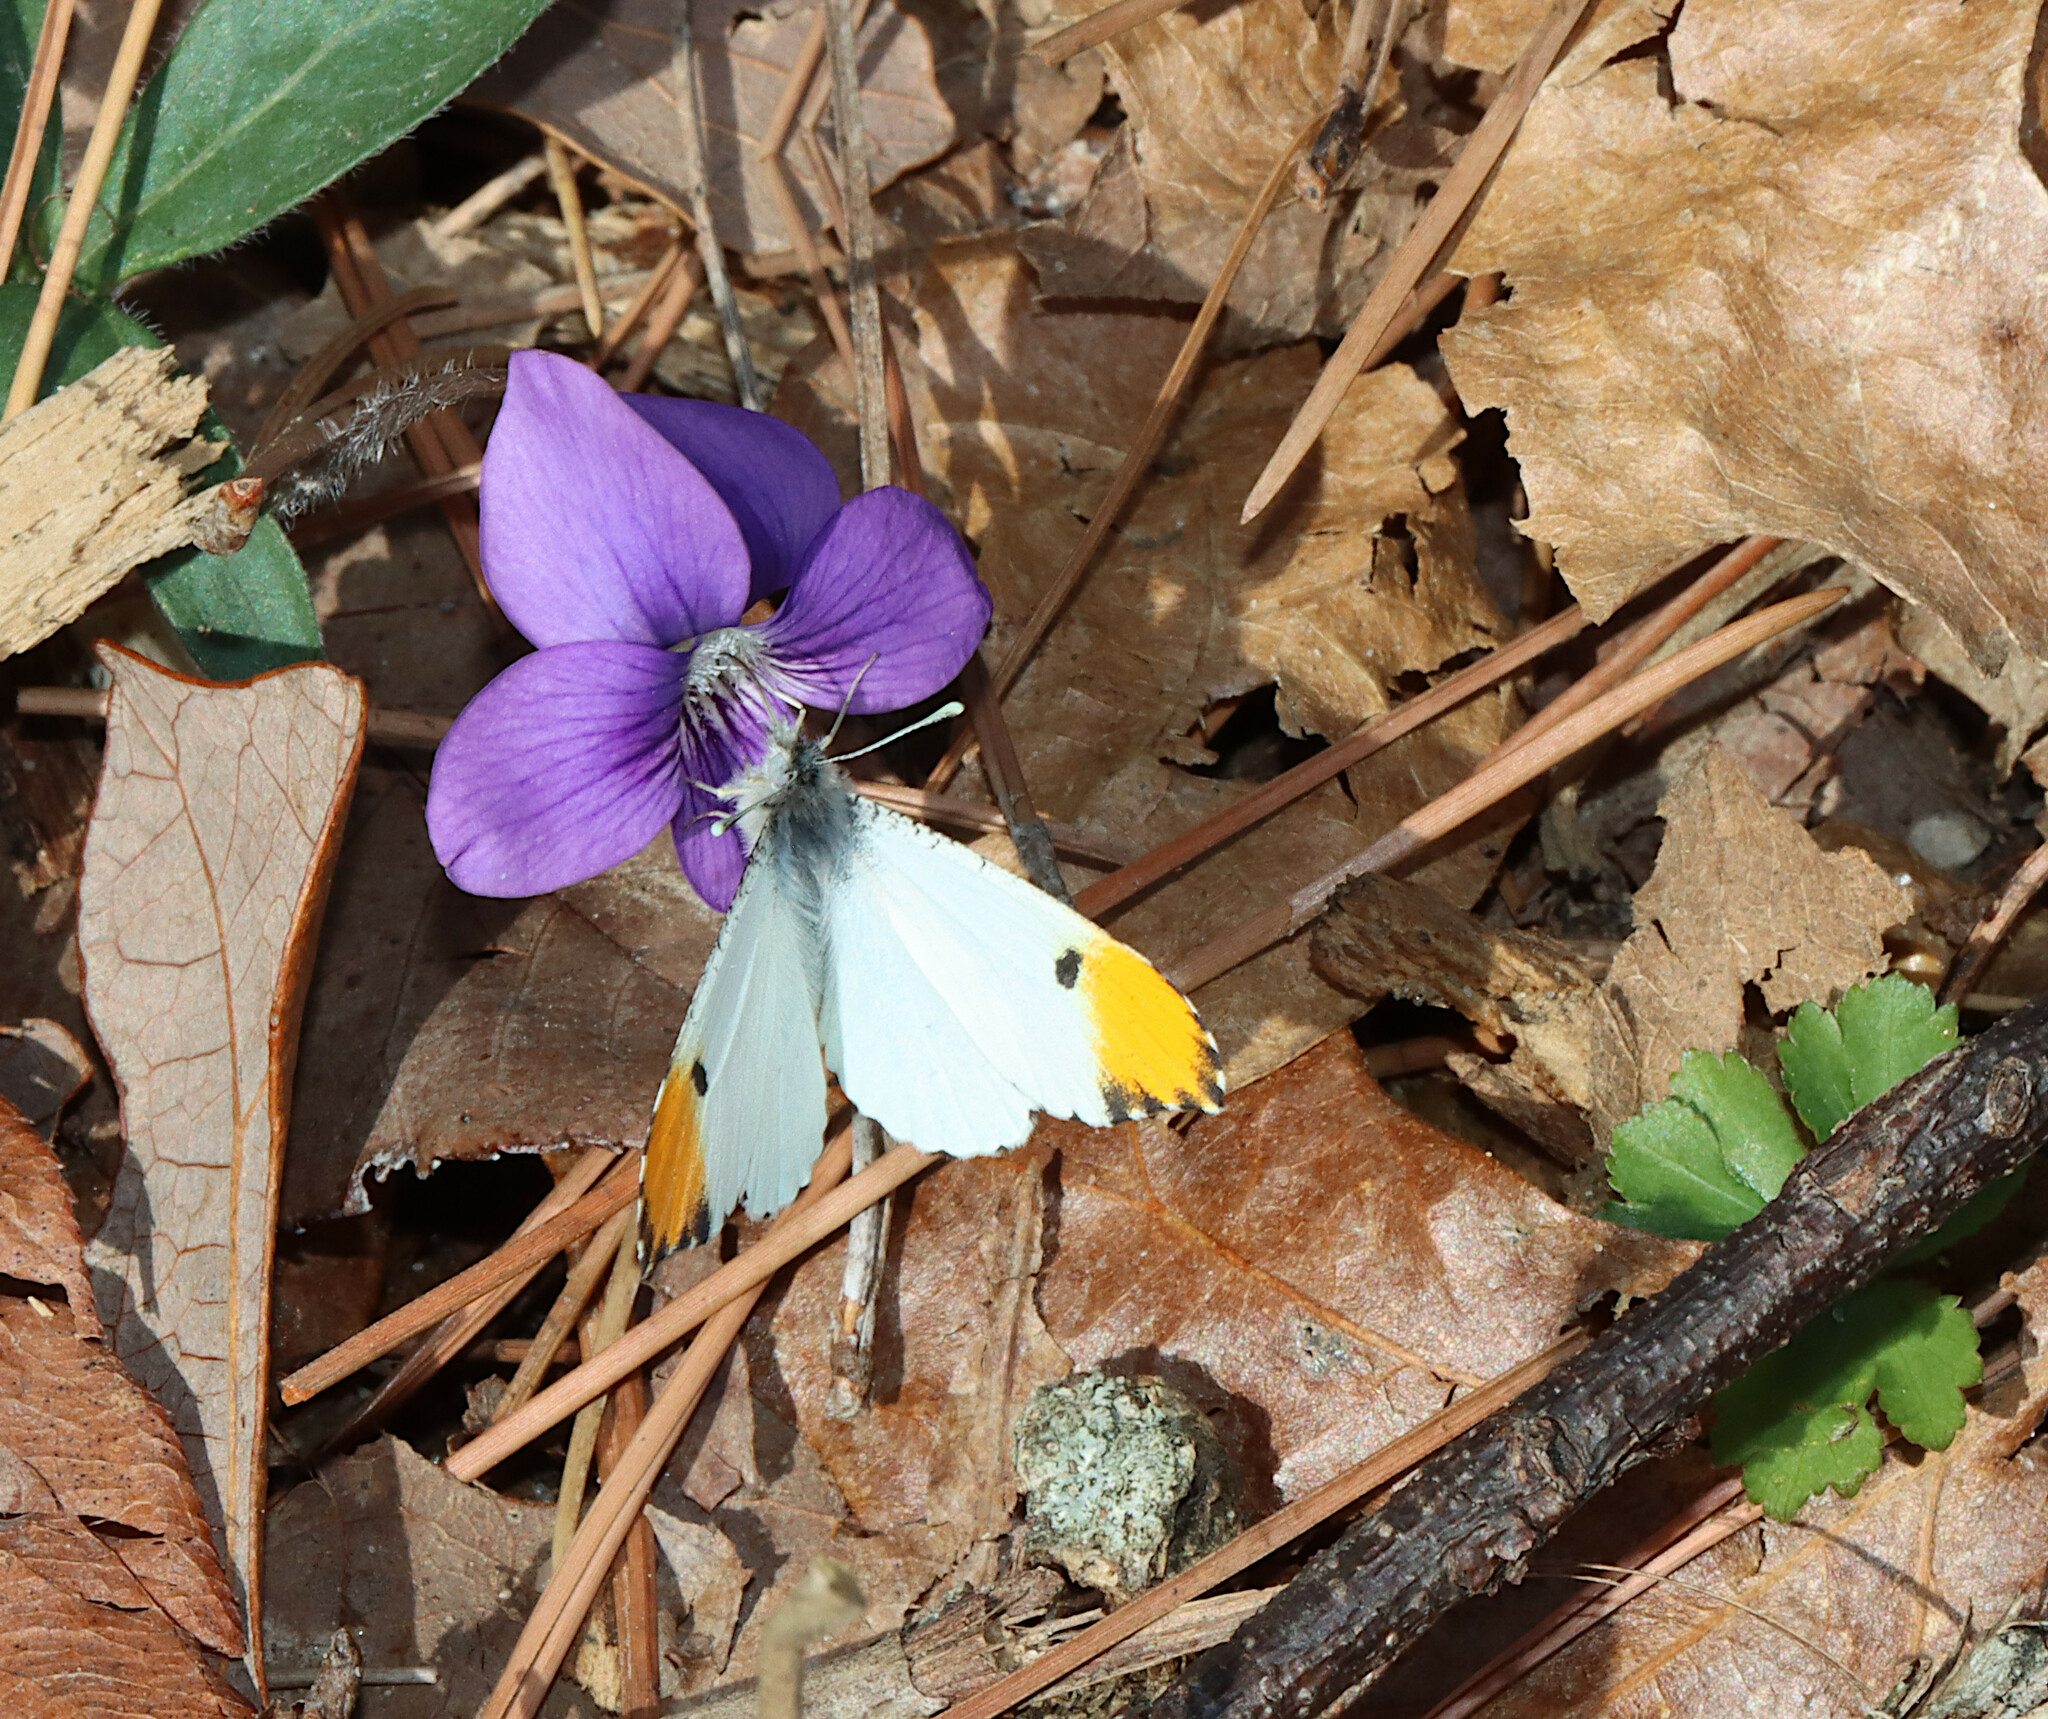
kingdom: Animalia
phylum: Arthropoda
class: Insecta
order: Lepidoptera
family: Pieridae
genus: Anthocharis
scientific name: Anthocharis midea
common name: Falcate orangetip
